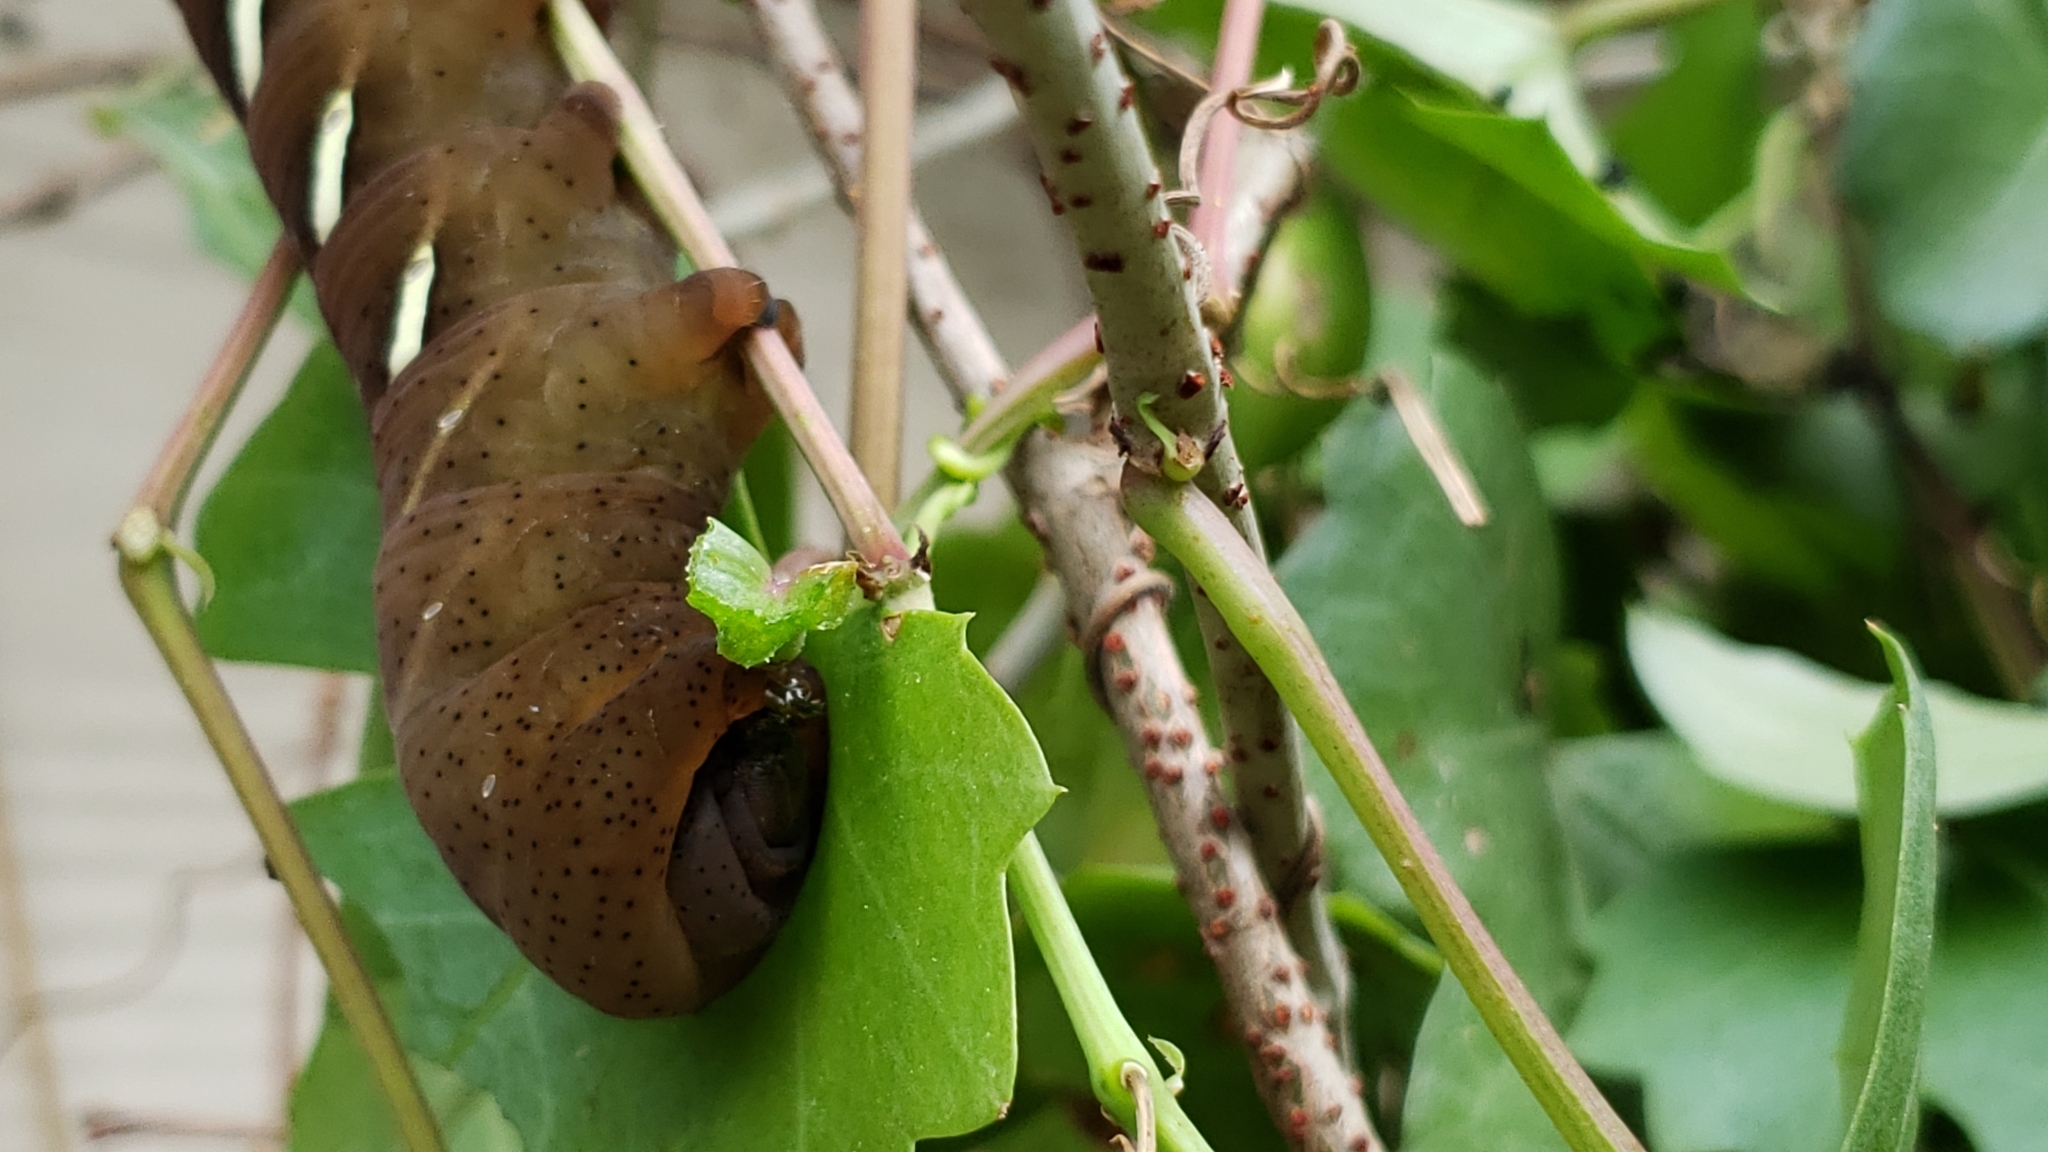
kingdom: Animalia
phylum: Arthropoda
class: Insecta
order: Lepidoptera
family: Sphingidae
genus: Eumorpha
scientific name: Eumorpha vitis
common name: Vine sphinx
